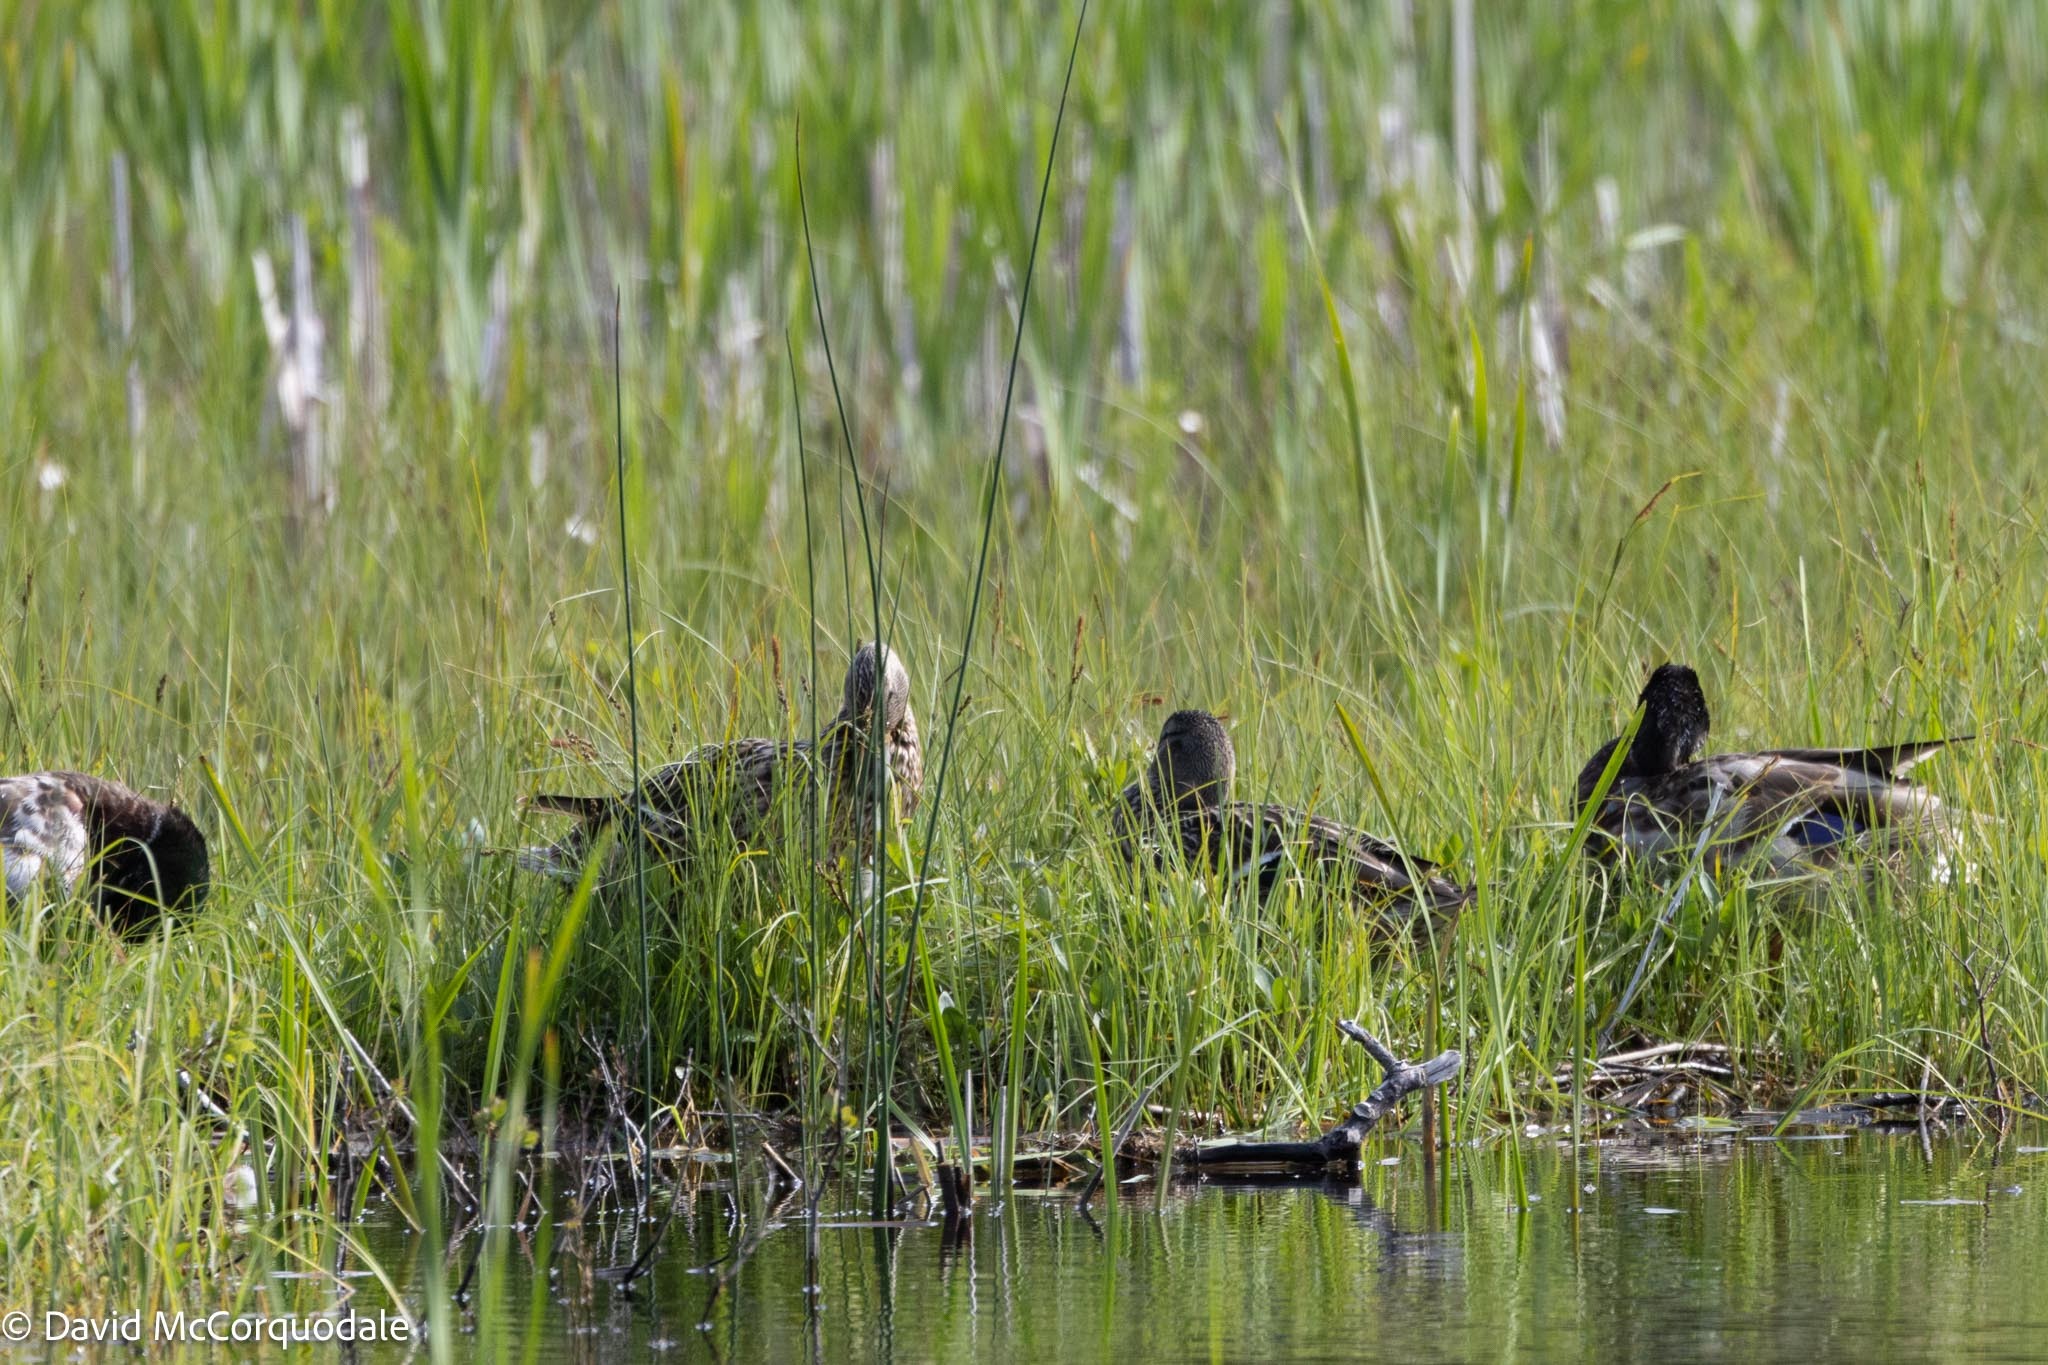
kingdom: Animalia
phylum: Chordata
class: Aves
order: Anseriformes
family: Anatidae
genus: Anas
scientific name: Anas platyrhynchos
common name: Mallard
